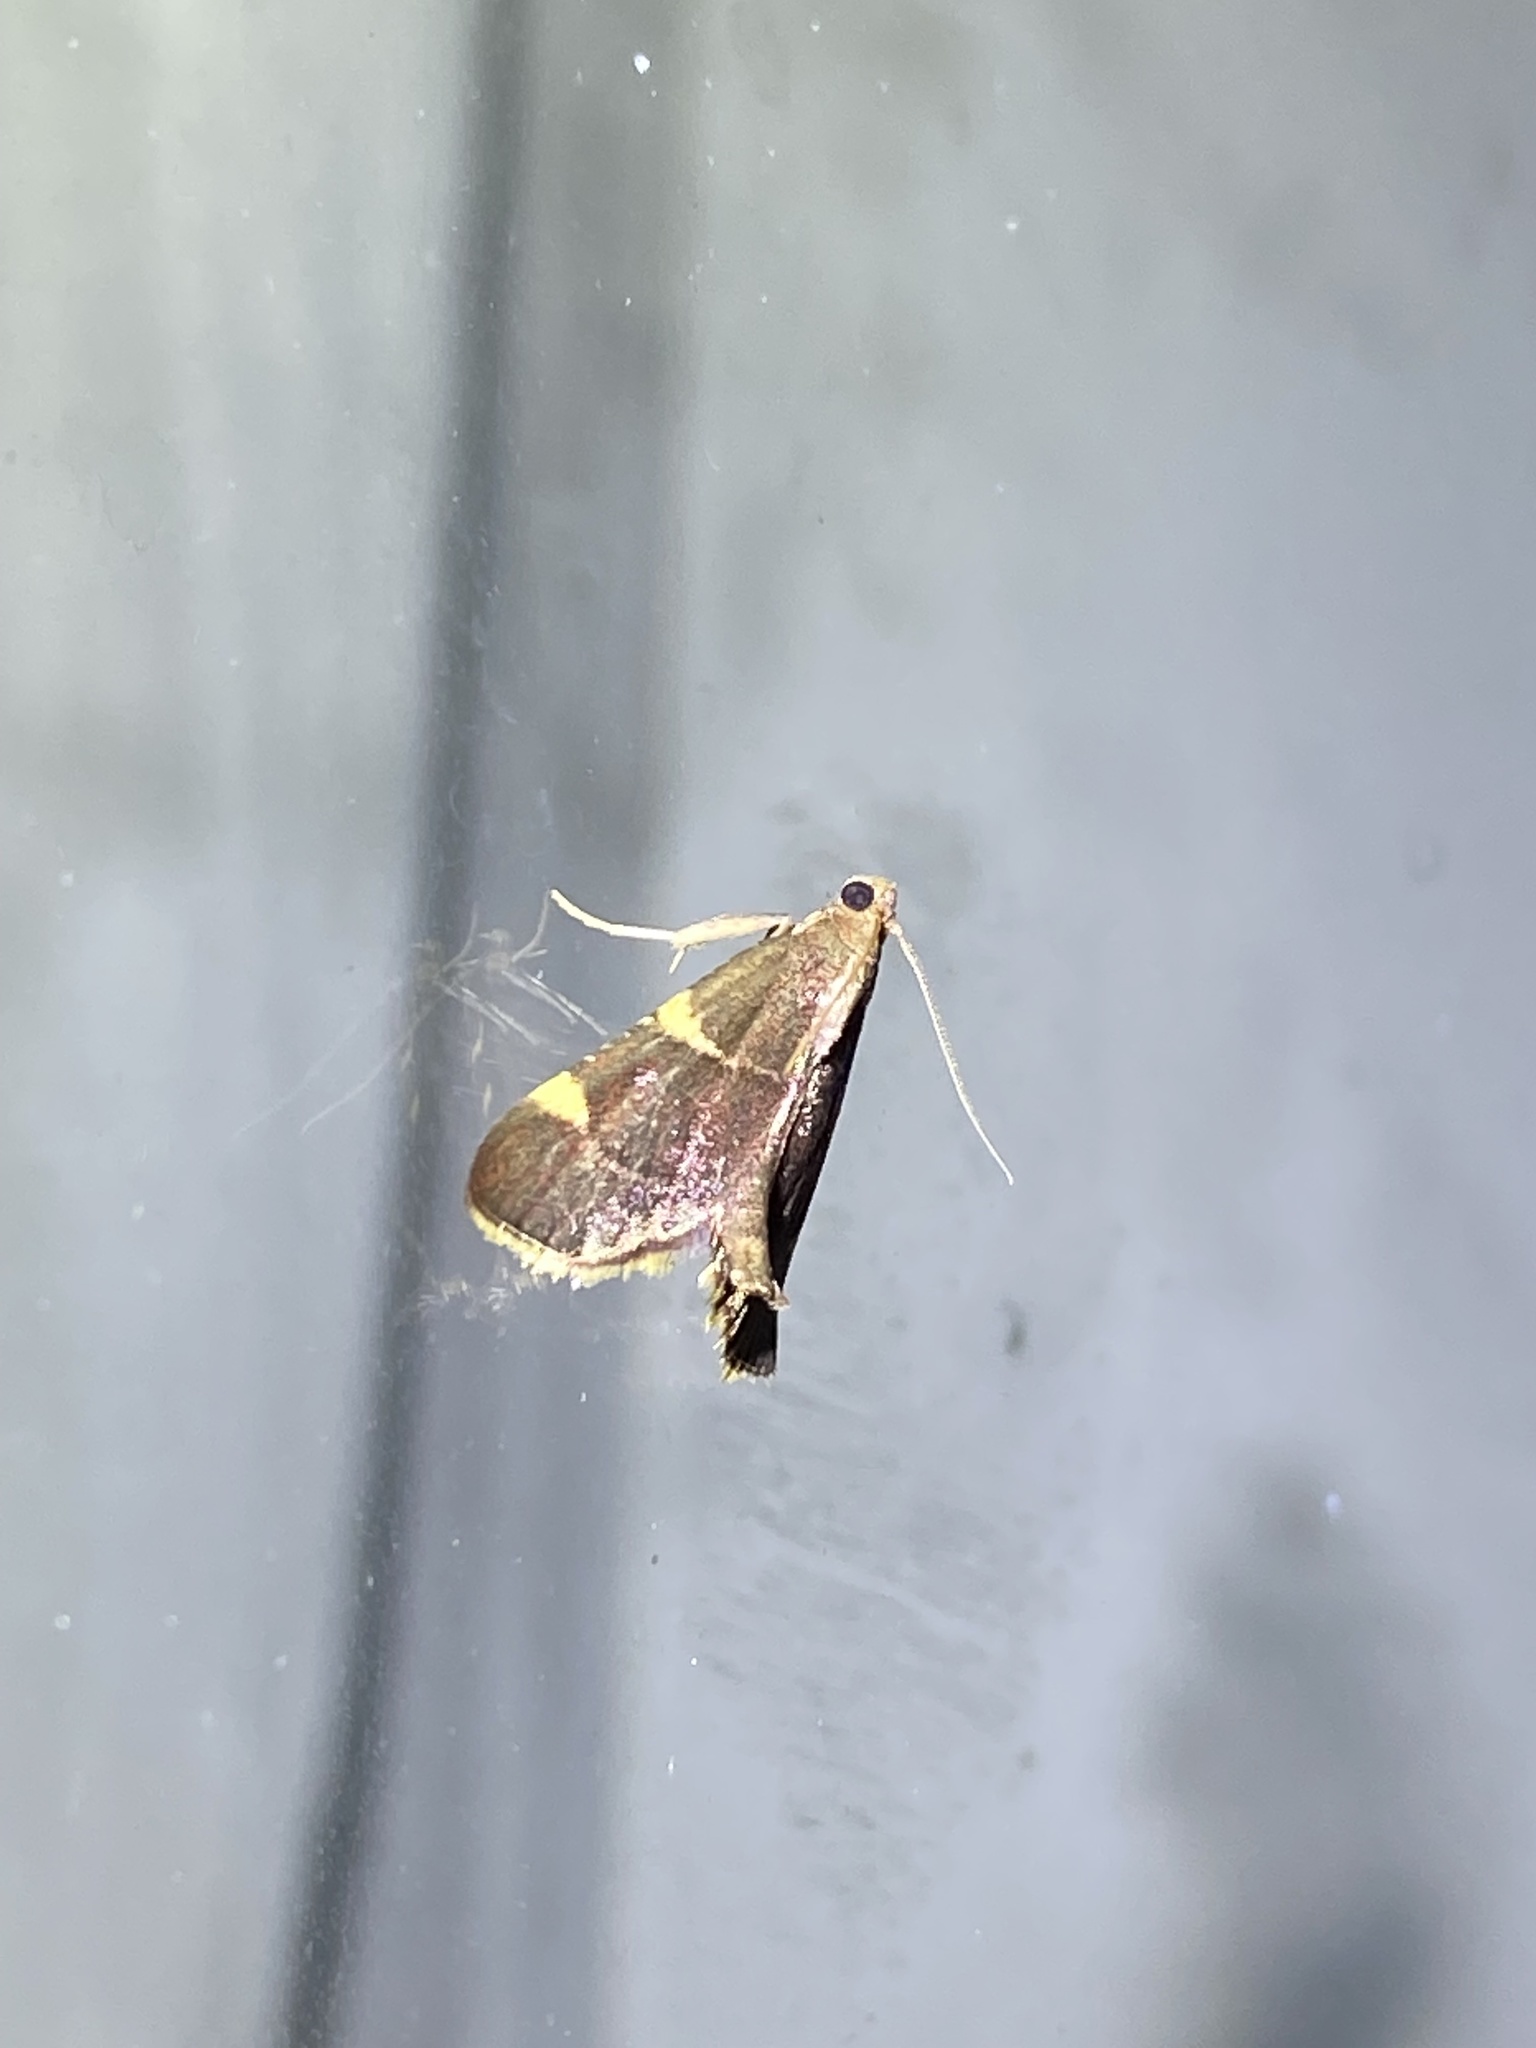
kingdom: Animalia
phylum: Arthropoda
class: Insecta
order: Lepidoptera
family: Pyralidae
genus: Hypsopygia
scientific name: Hypsopygia olinalis
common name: Yellow-fringed dolichomia moth
